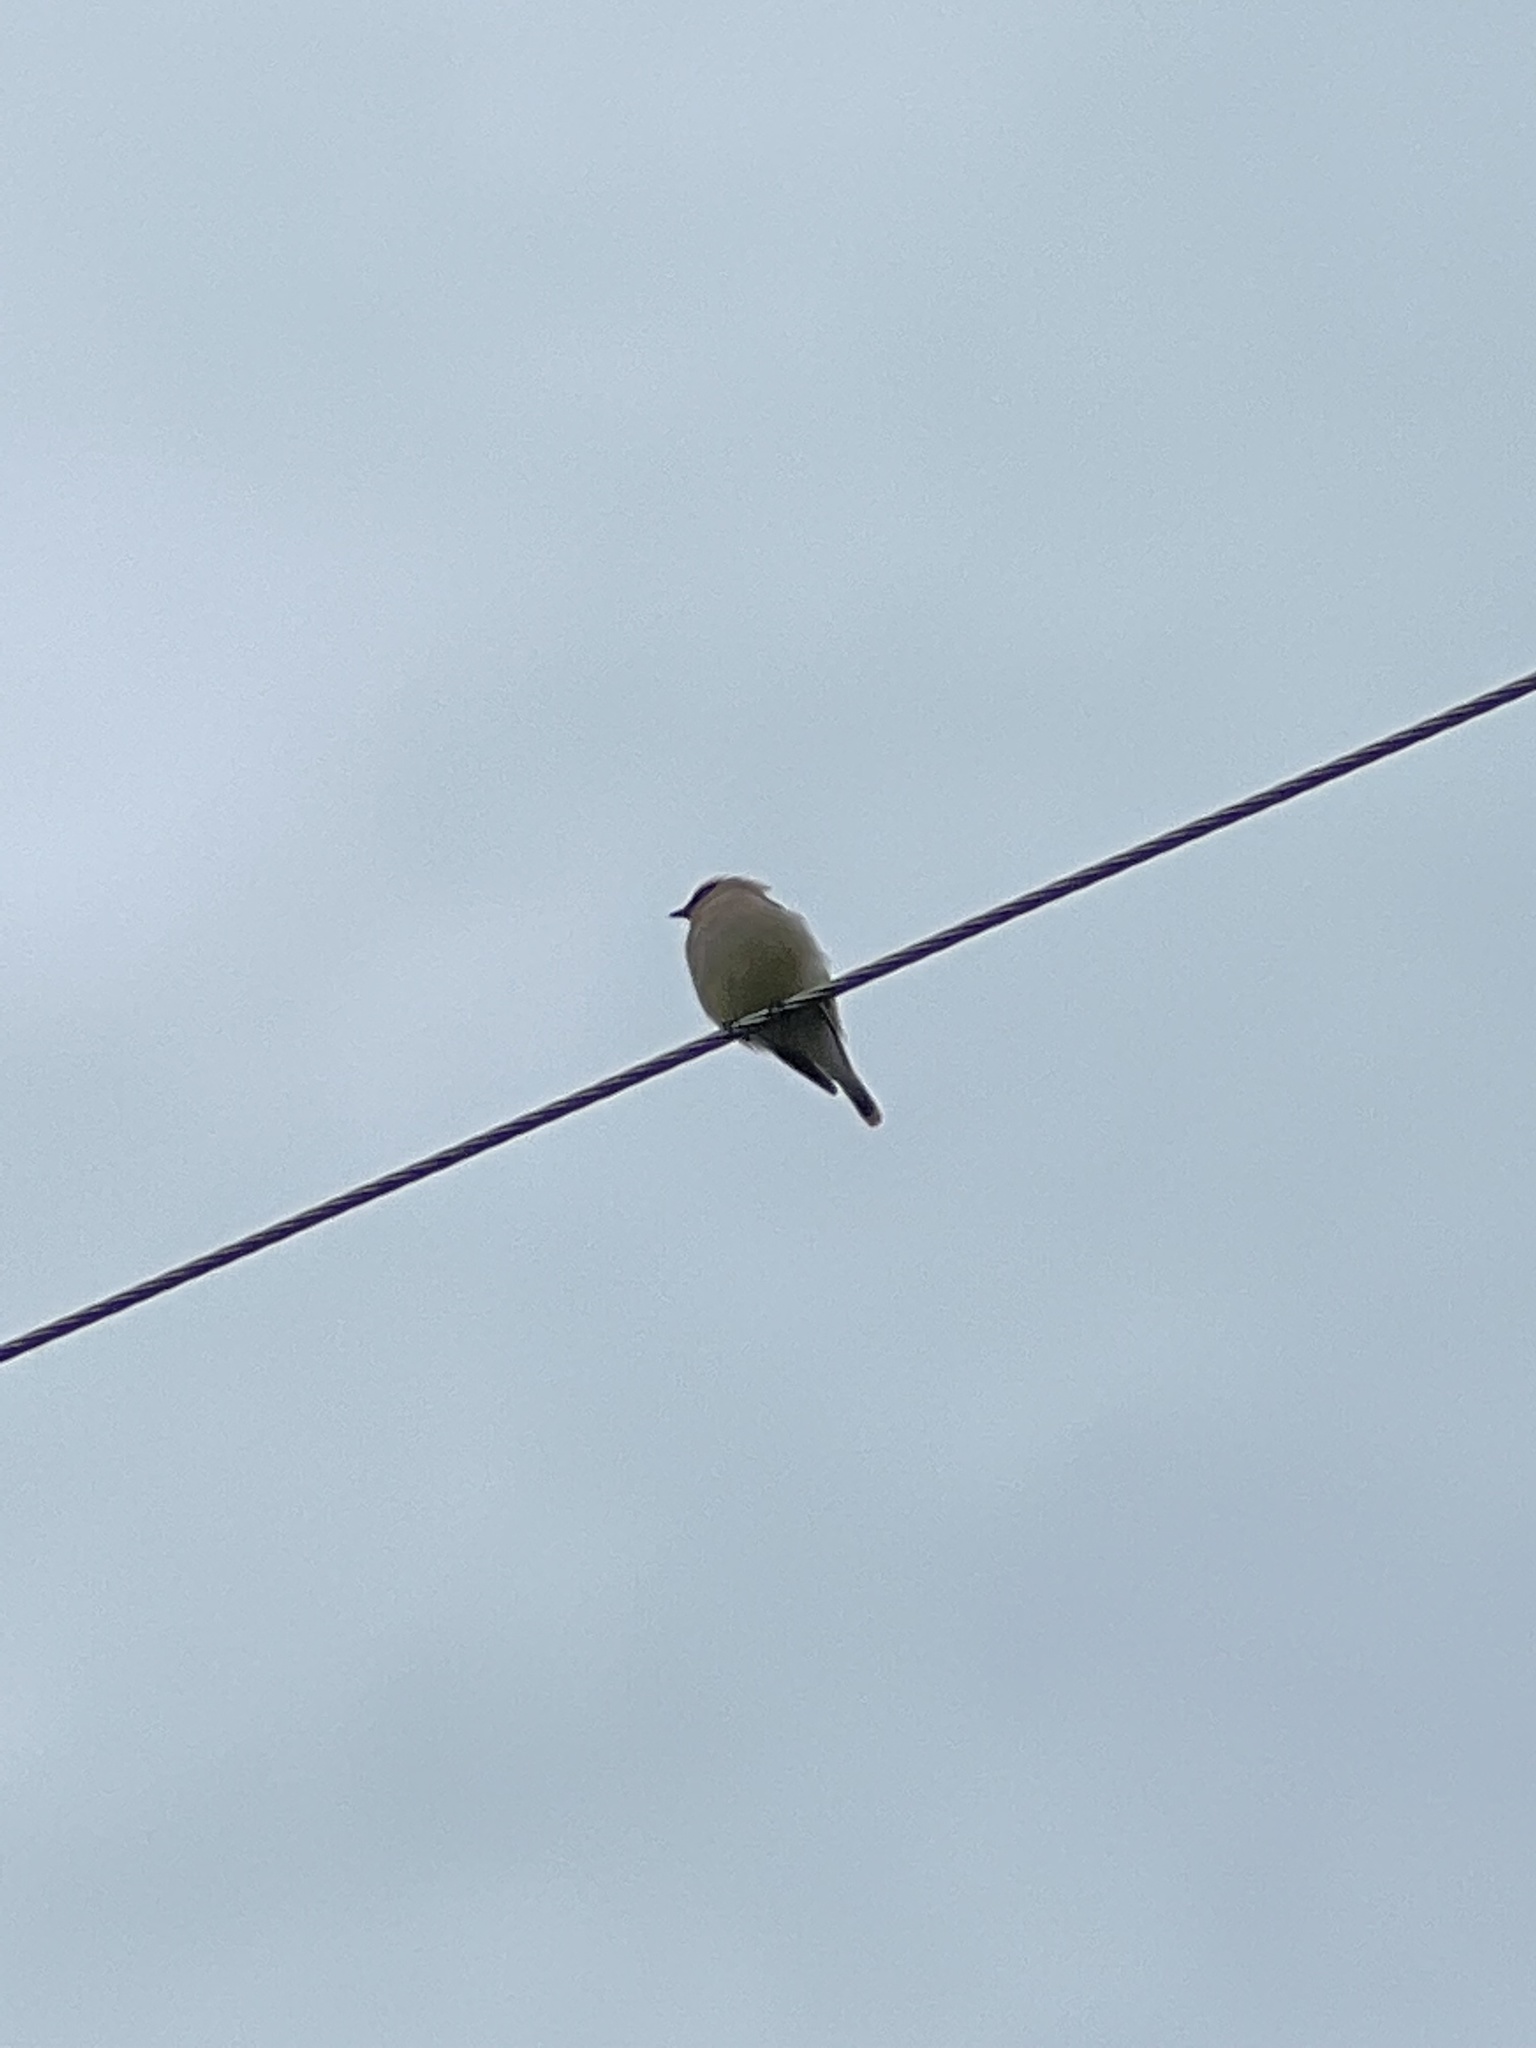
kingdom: Animalia
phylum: Chordata
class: Aves
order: Passeriformes
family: Bombycillidae
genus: Bombycilla
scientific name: Bombycilla cedrorum
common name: Cedar waxwing
